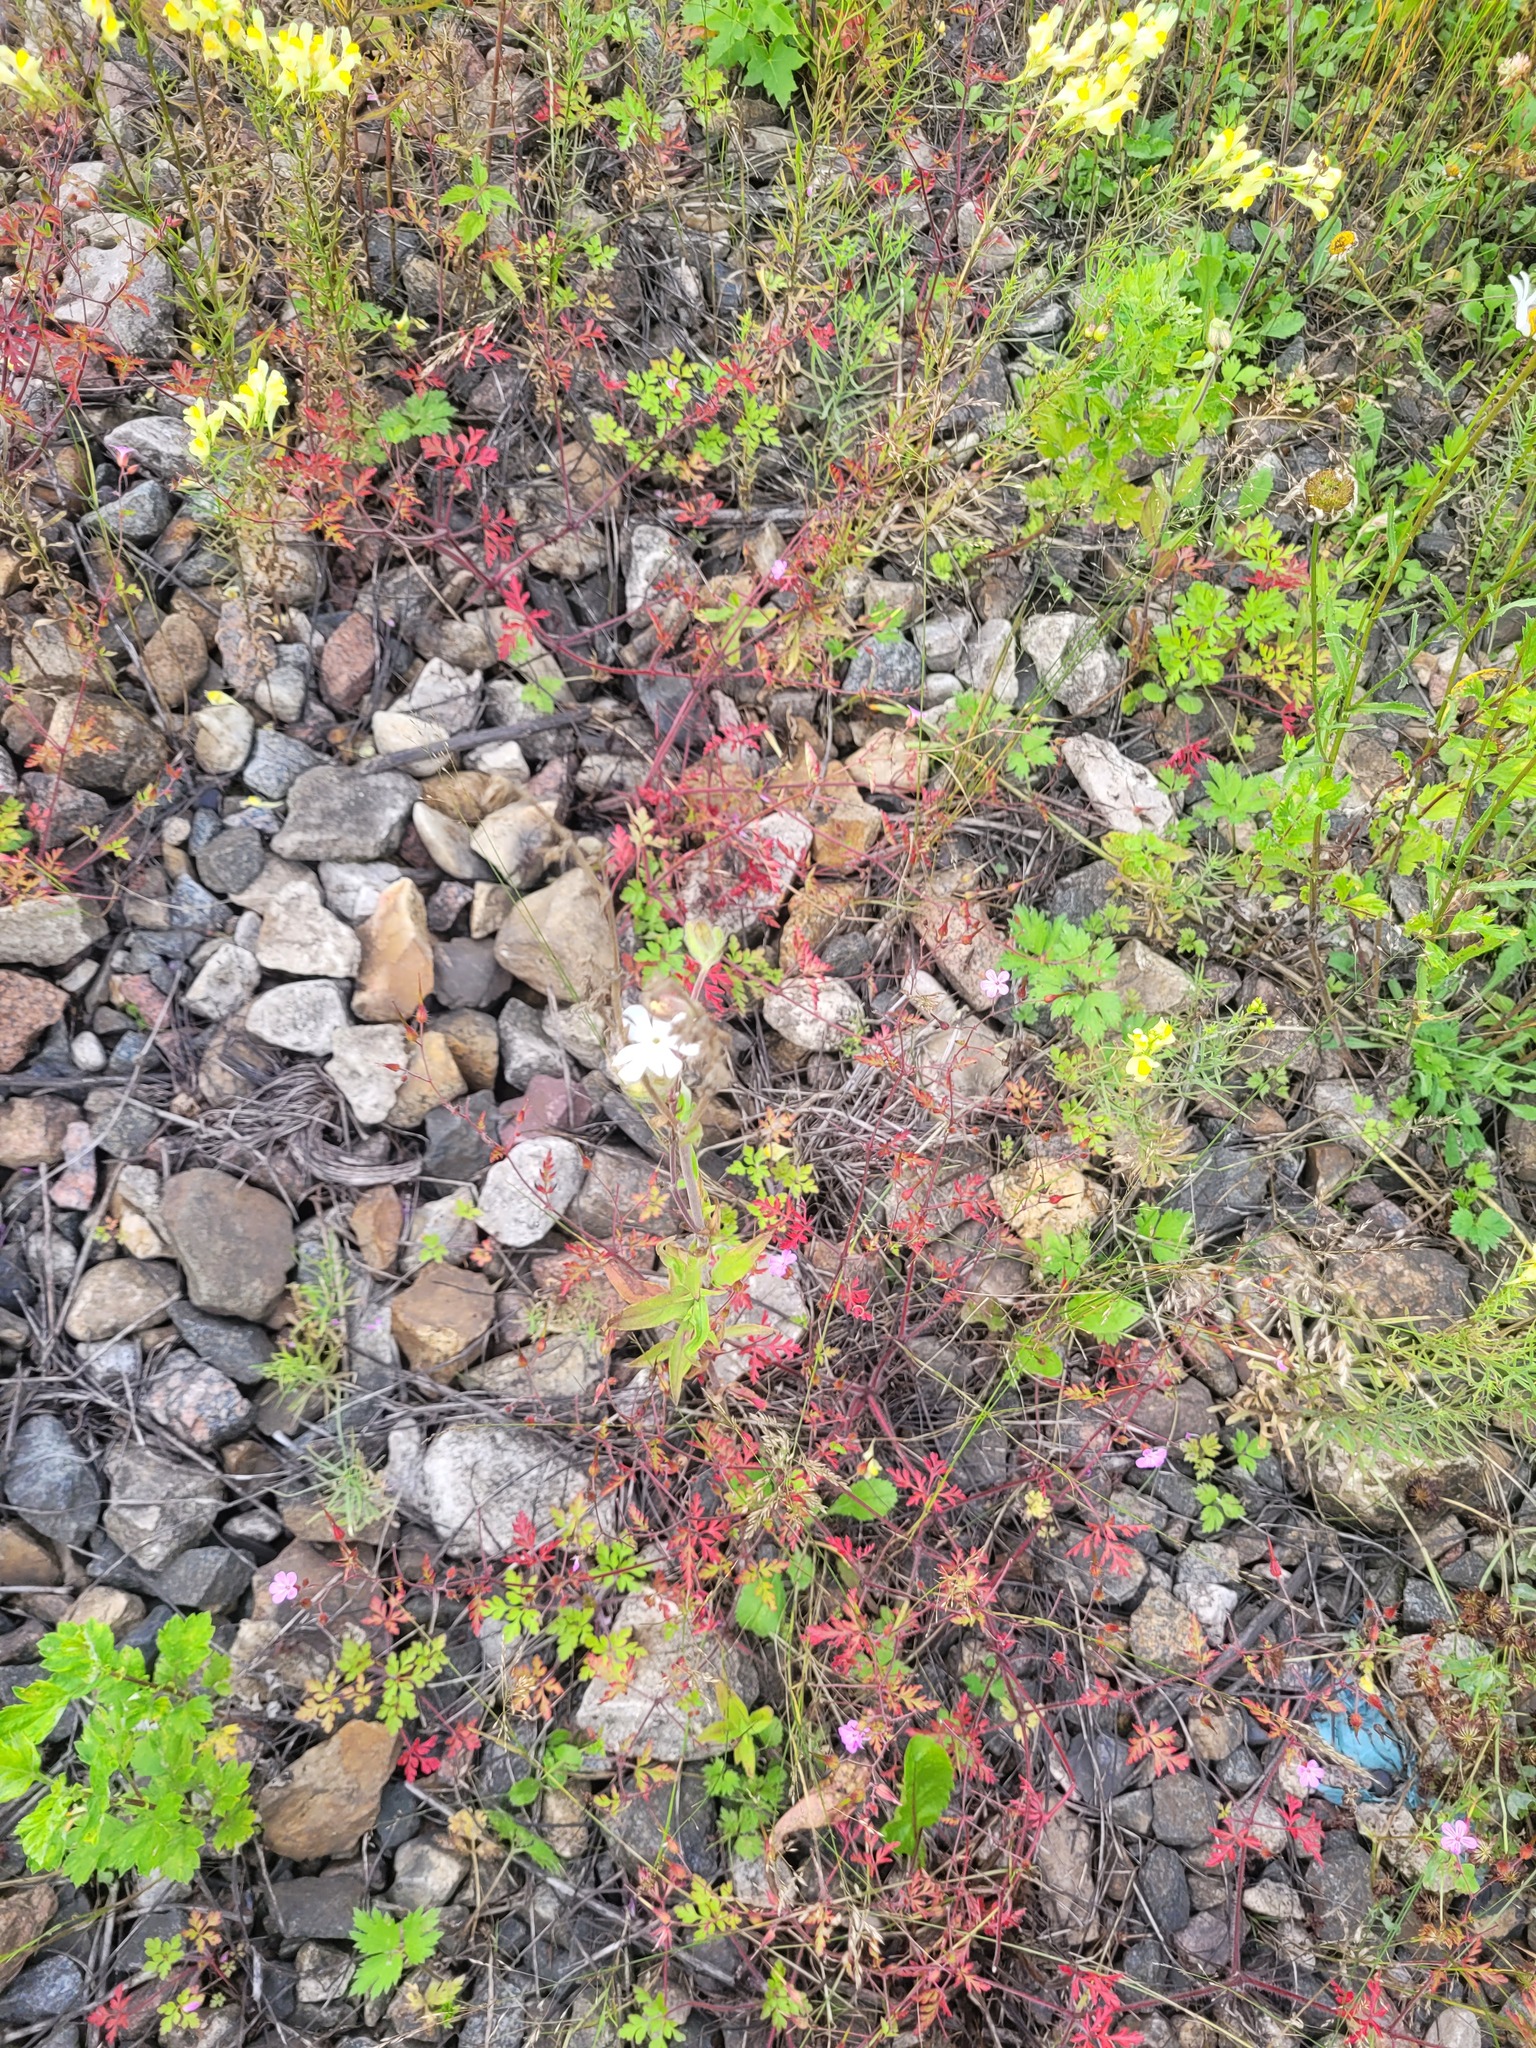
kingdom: Plantae
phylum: Tracheophyta
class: Magnoliopsida
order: Caryophyllales
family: Caryophyllaceae
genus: Silene
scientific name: Silene latifolia
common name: White campion
